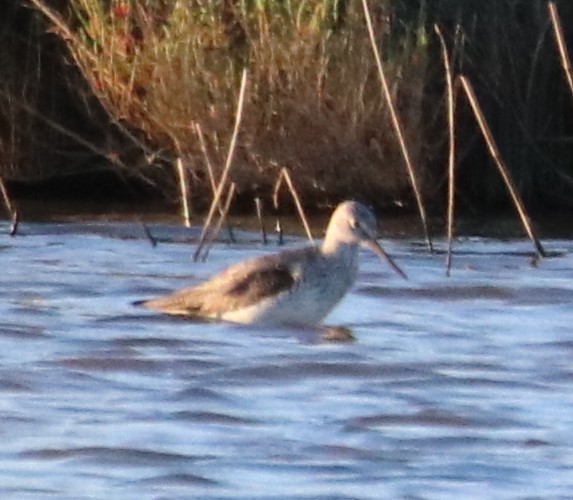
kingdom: Animalia
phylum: Chordata
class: Aves
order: Charadriiformes
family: Scolopacidae
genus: Tringa
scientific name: Tringa nebularia
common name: Common greenshank
